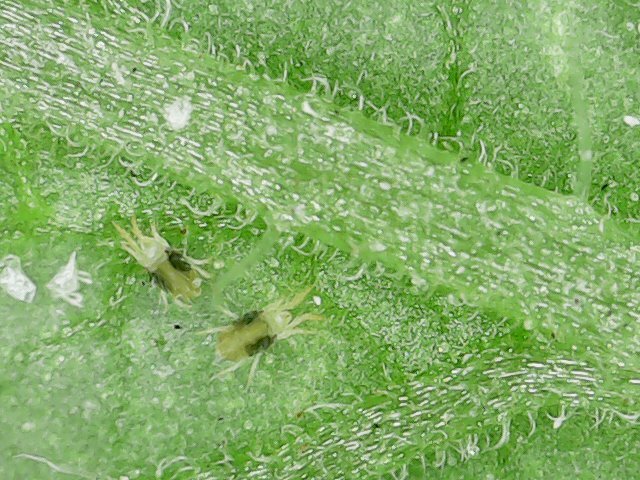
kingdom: Animalia
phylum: Arthropoda
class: Arachnida
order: Trombidiformes
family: Tetranychidae
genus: Tetranychus
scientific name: Tetranychus urticae
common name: Carmine spider mite
